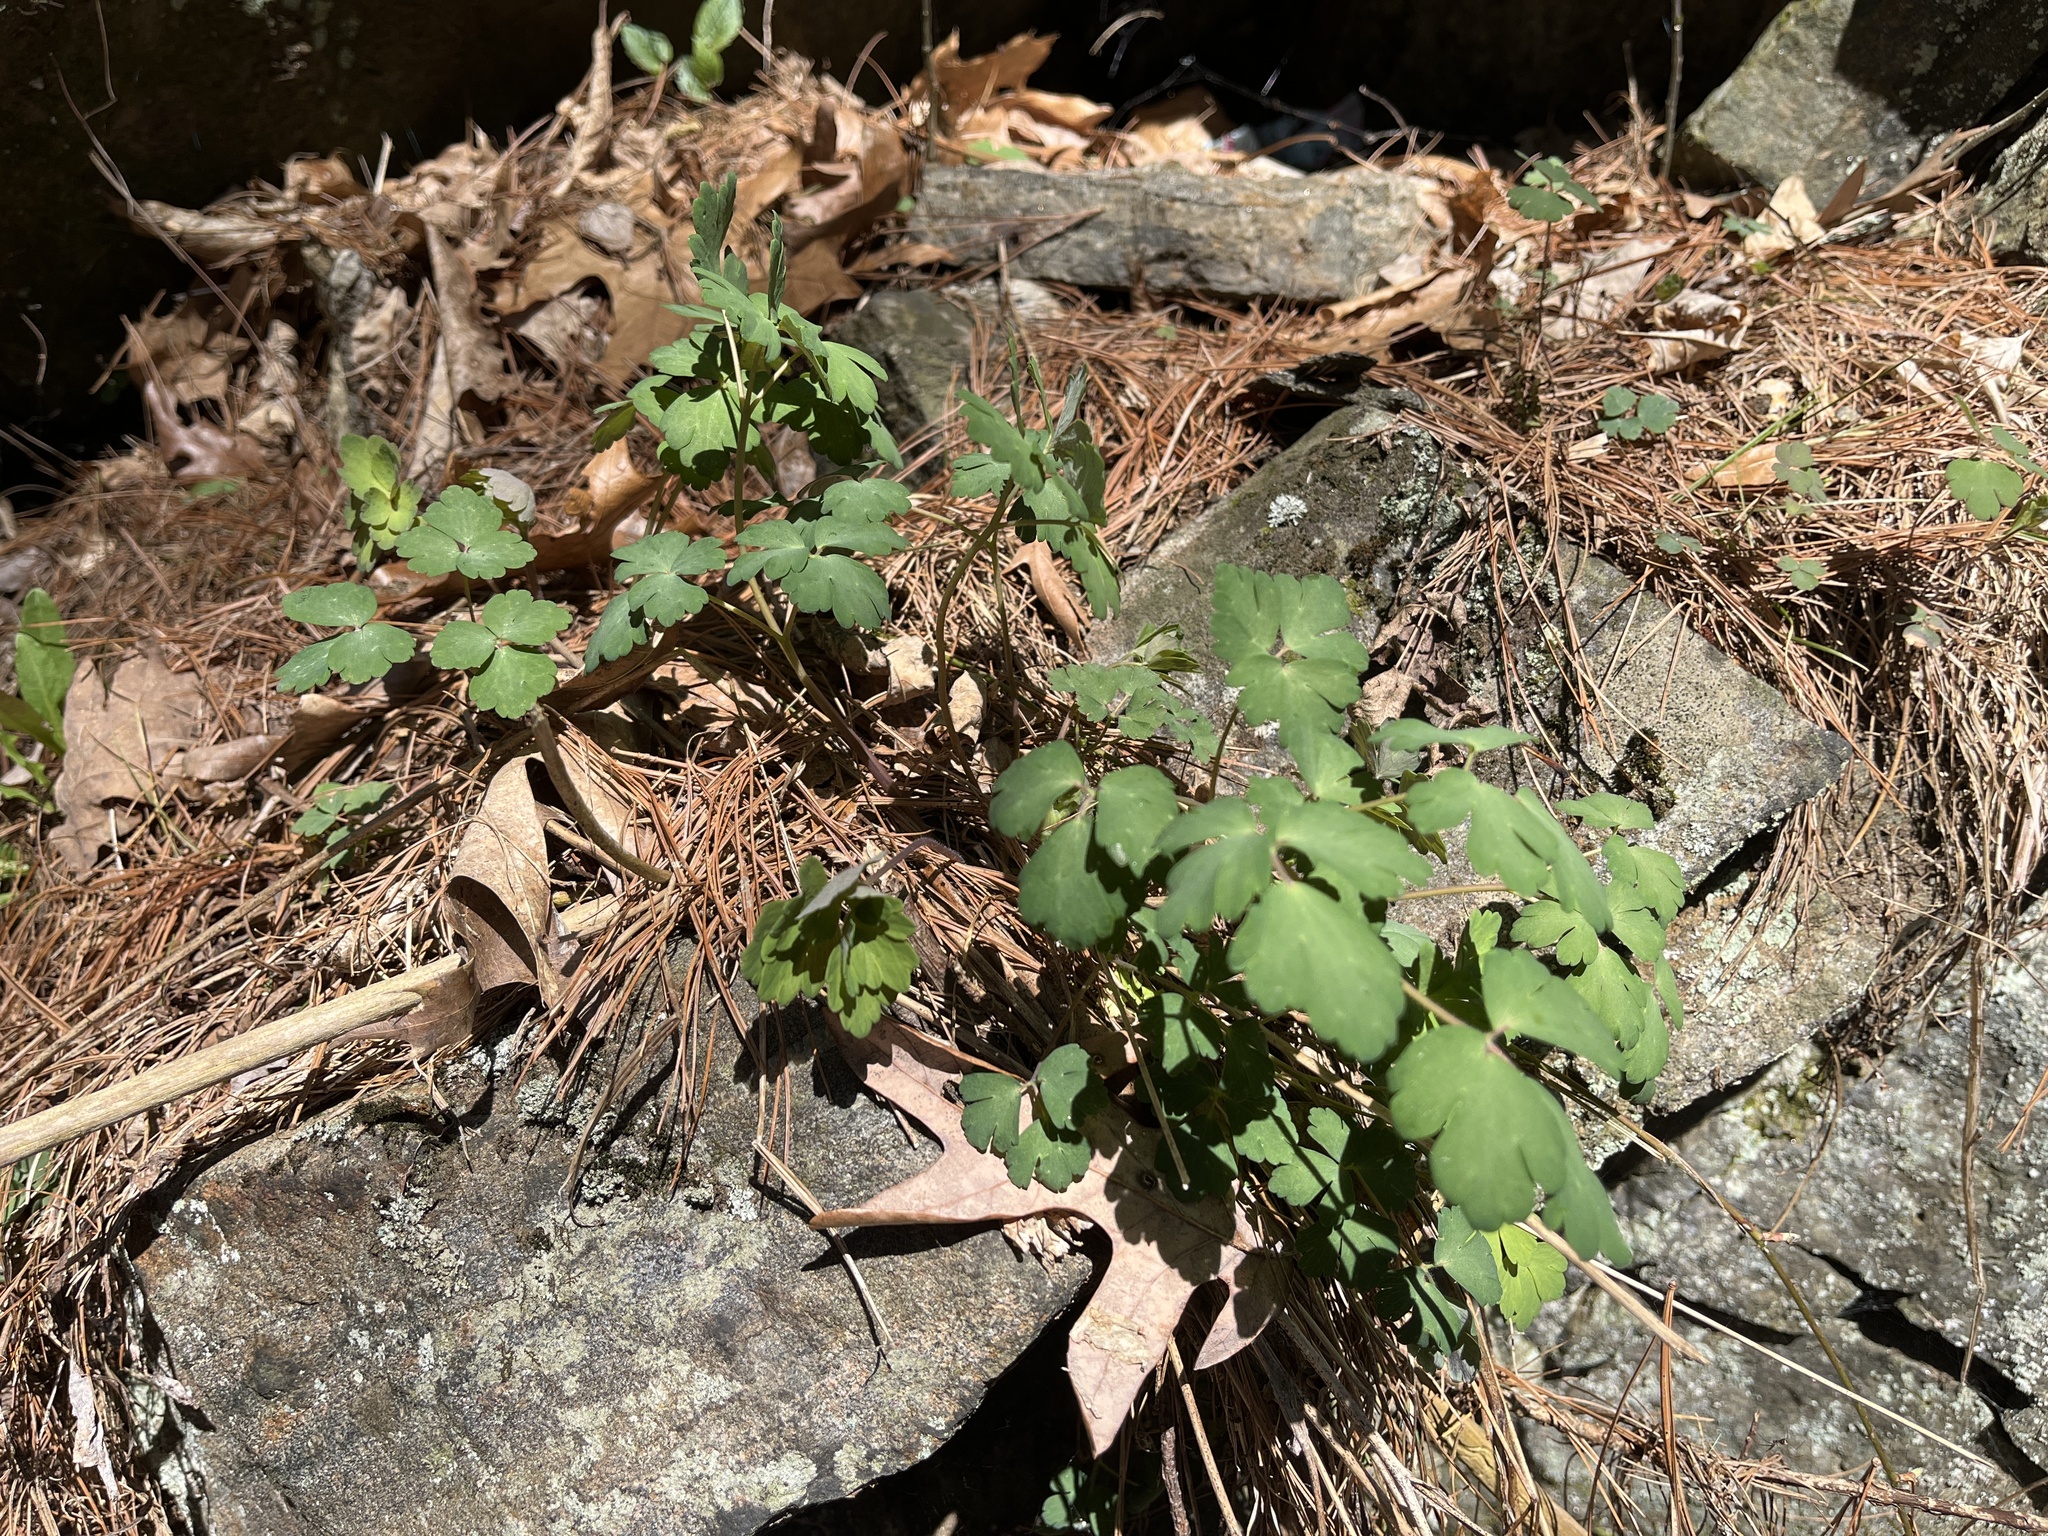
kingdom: Plantae
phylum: Tracheophyta
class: Magnoliopsida
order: Ranunculales
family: Ranunculaceae
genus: Aquilegia
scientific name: Aquilegia canadensis
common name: American columbine
